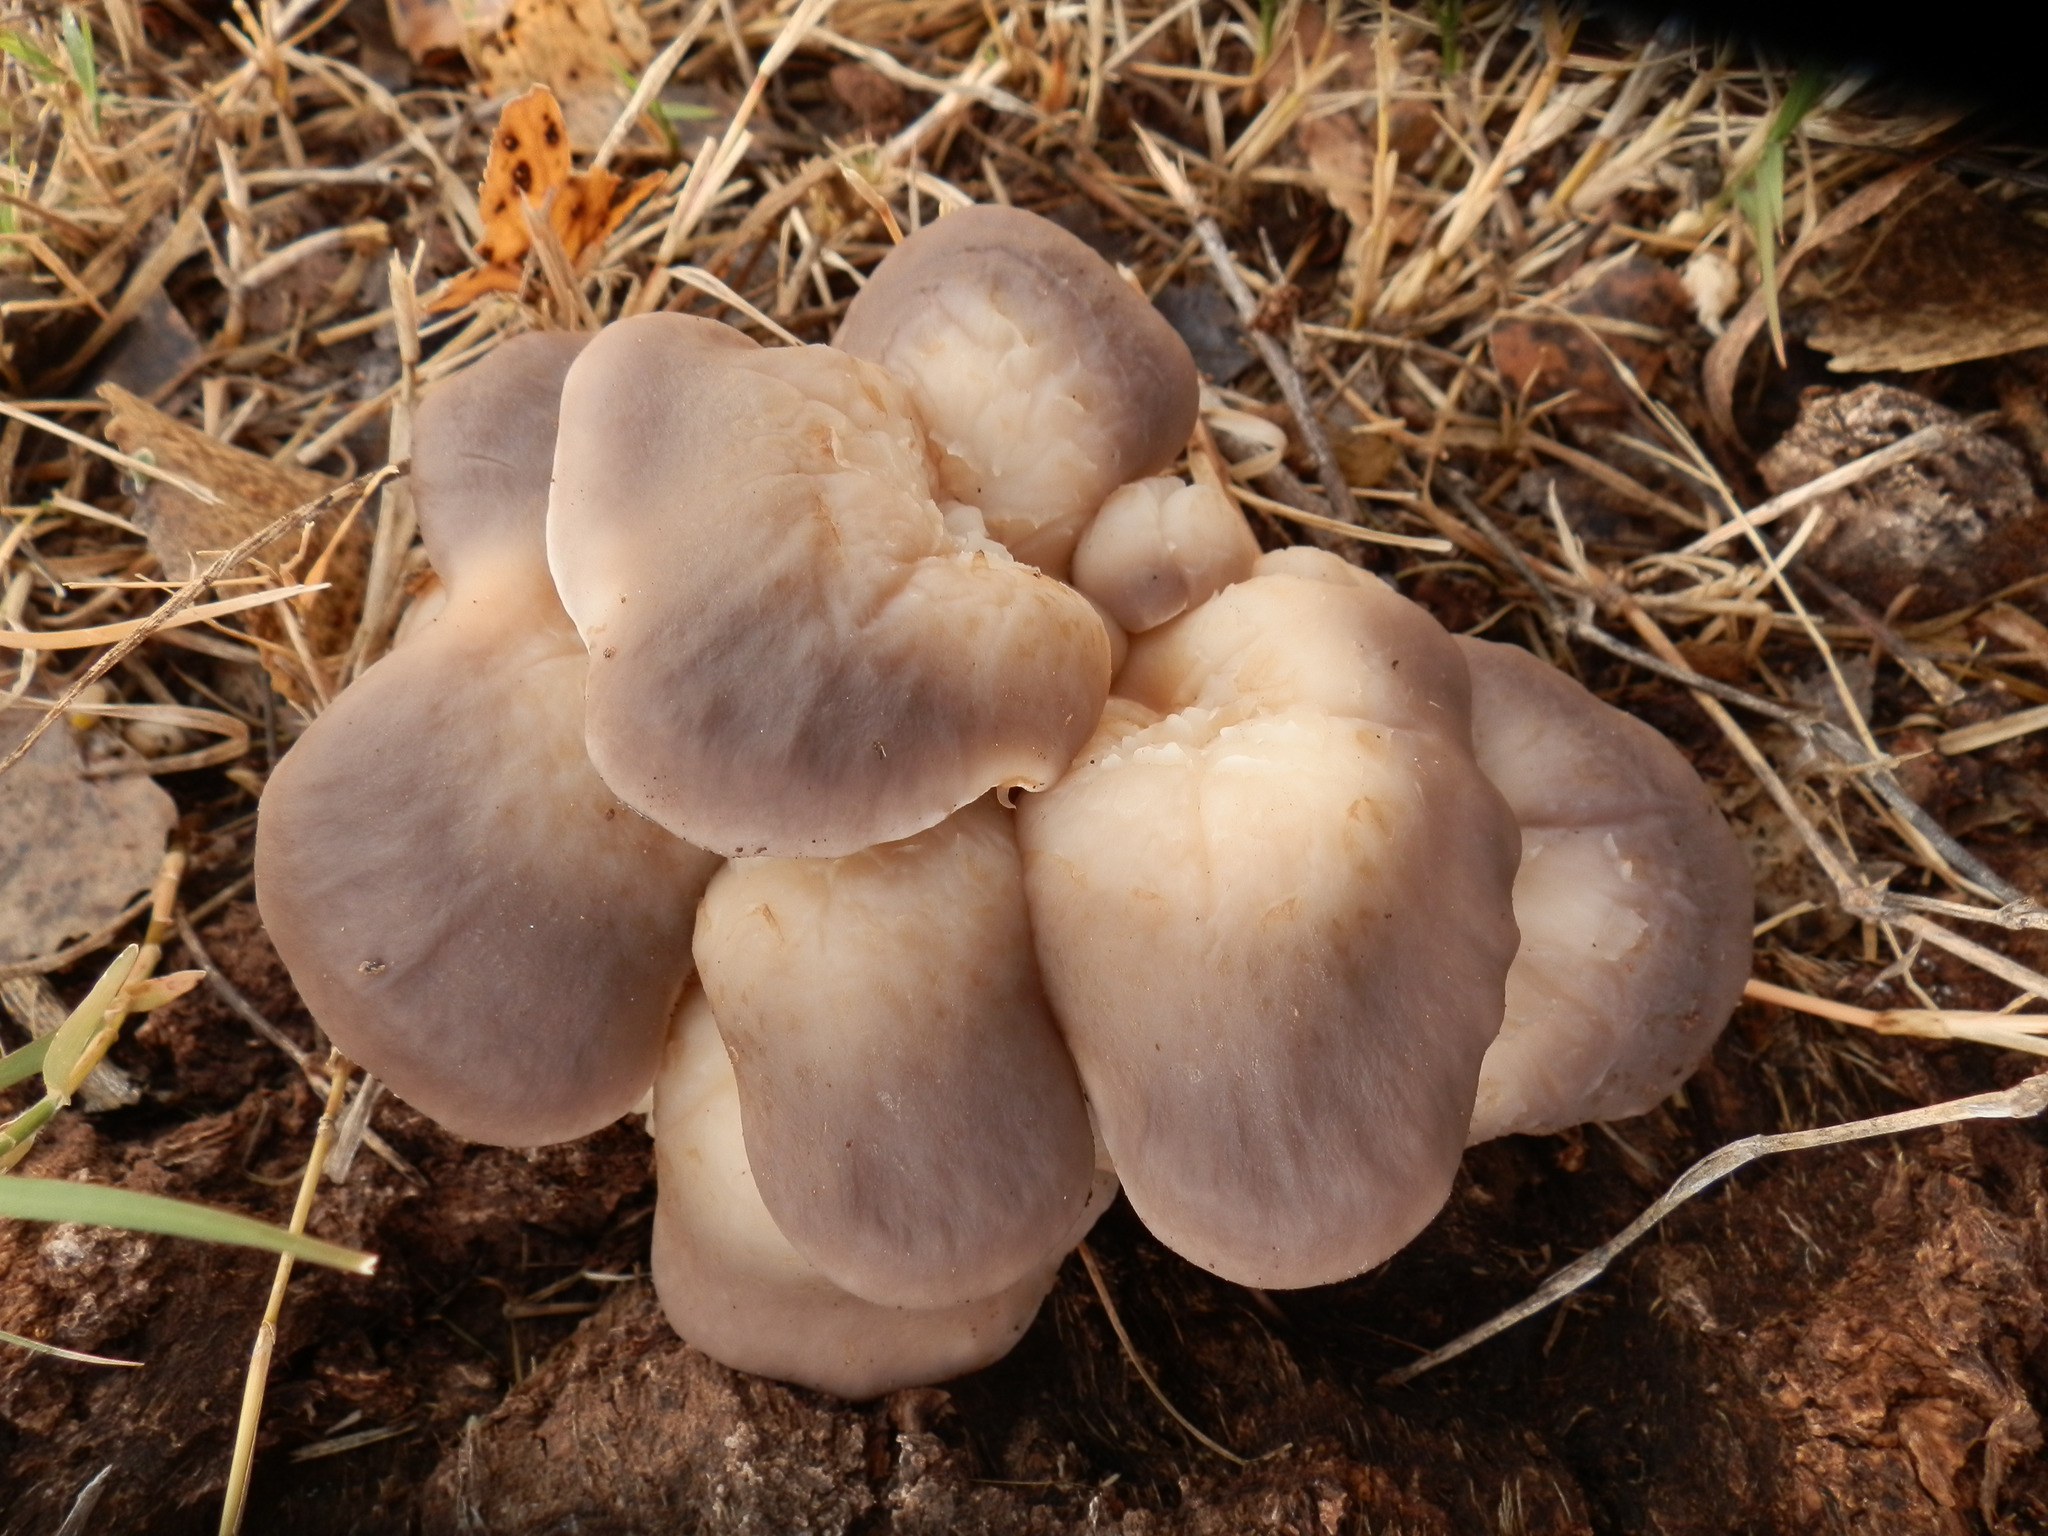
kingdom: Fungi
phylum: Basidiomycota
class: Agaricomycetes
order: Agaricales
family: Pleurotaceae
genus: Pleurotus
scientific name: Pleurotus ostreatus
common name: Oyster mushroom
